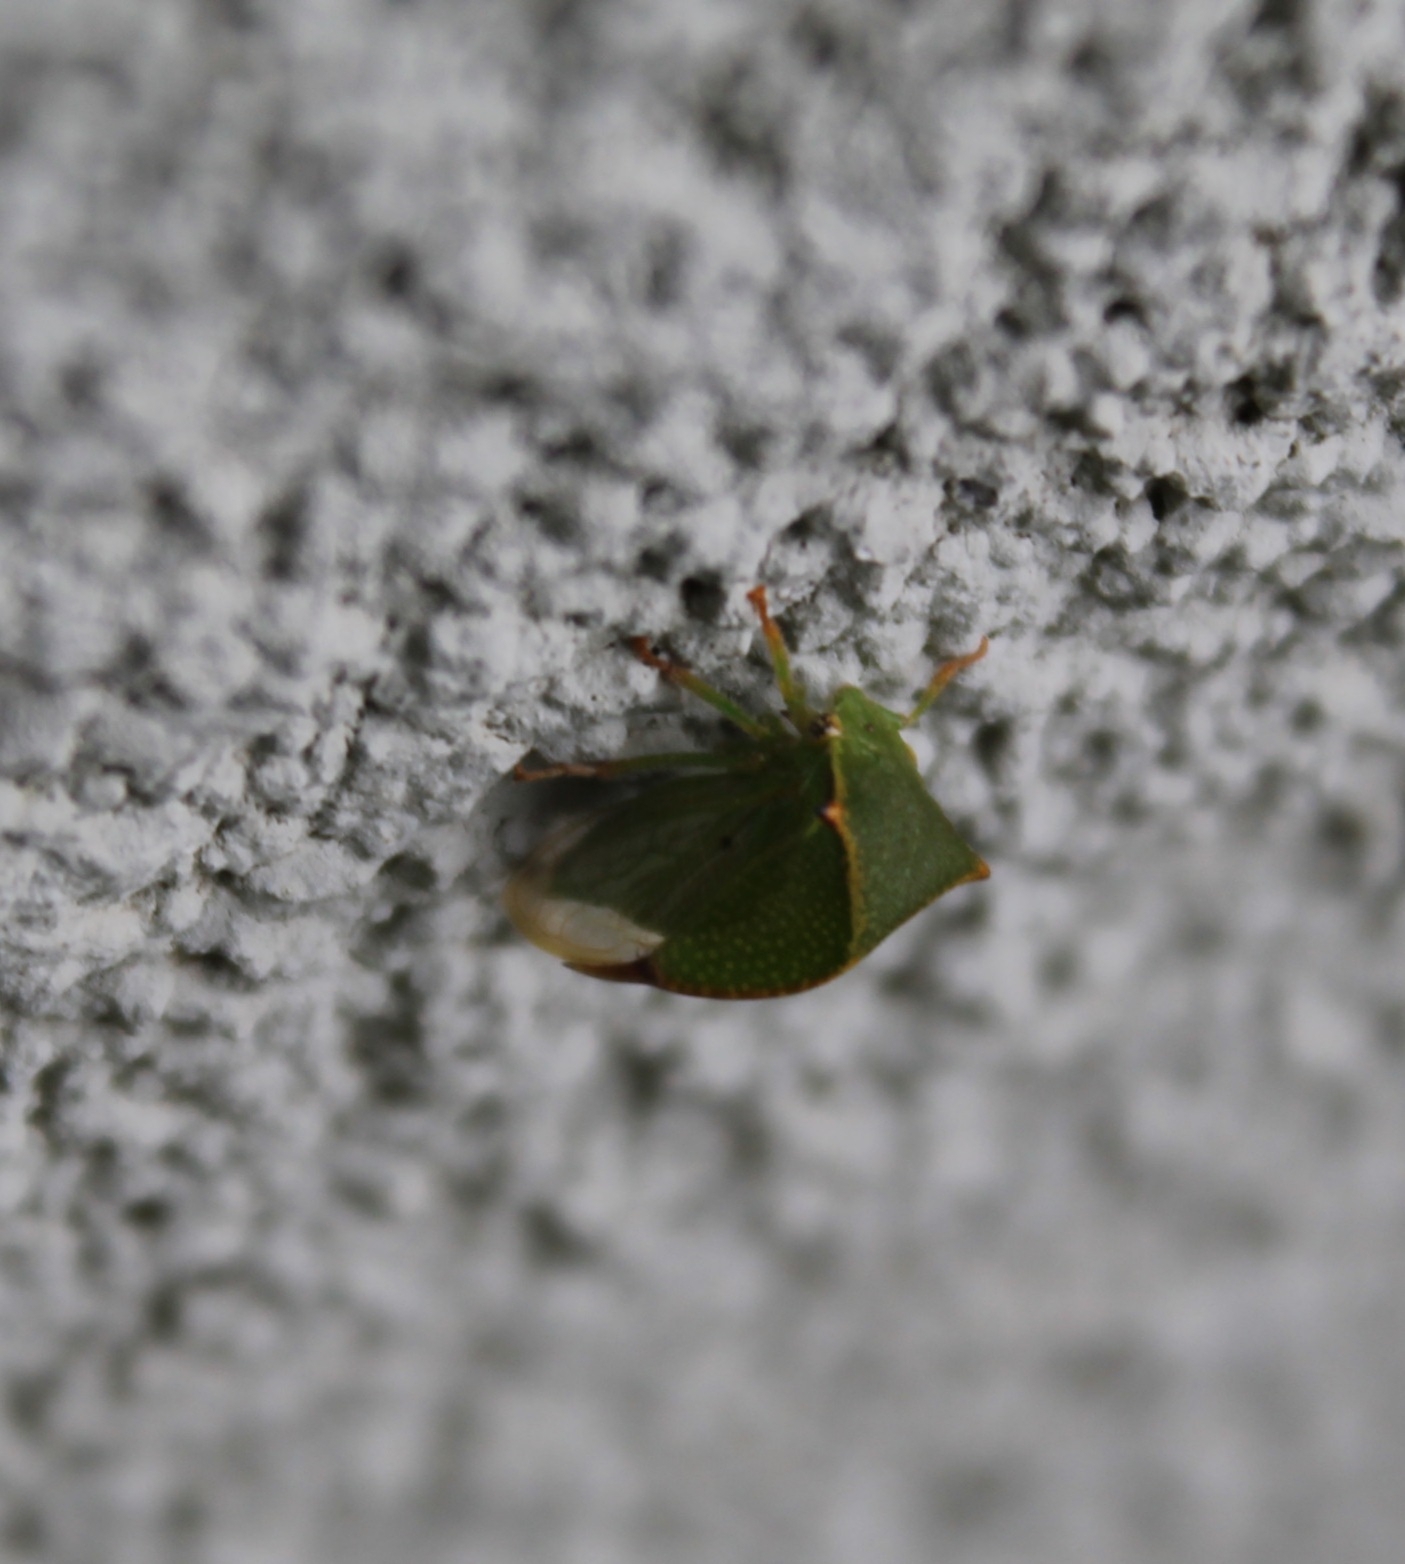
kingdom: Animalia
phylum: Arthropoda
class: Insecta
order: Hemiptera
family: Membracidae
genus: Stictocephala
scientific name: Stictocephala bisonia
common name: American buffalo treehopper
